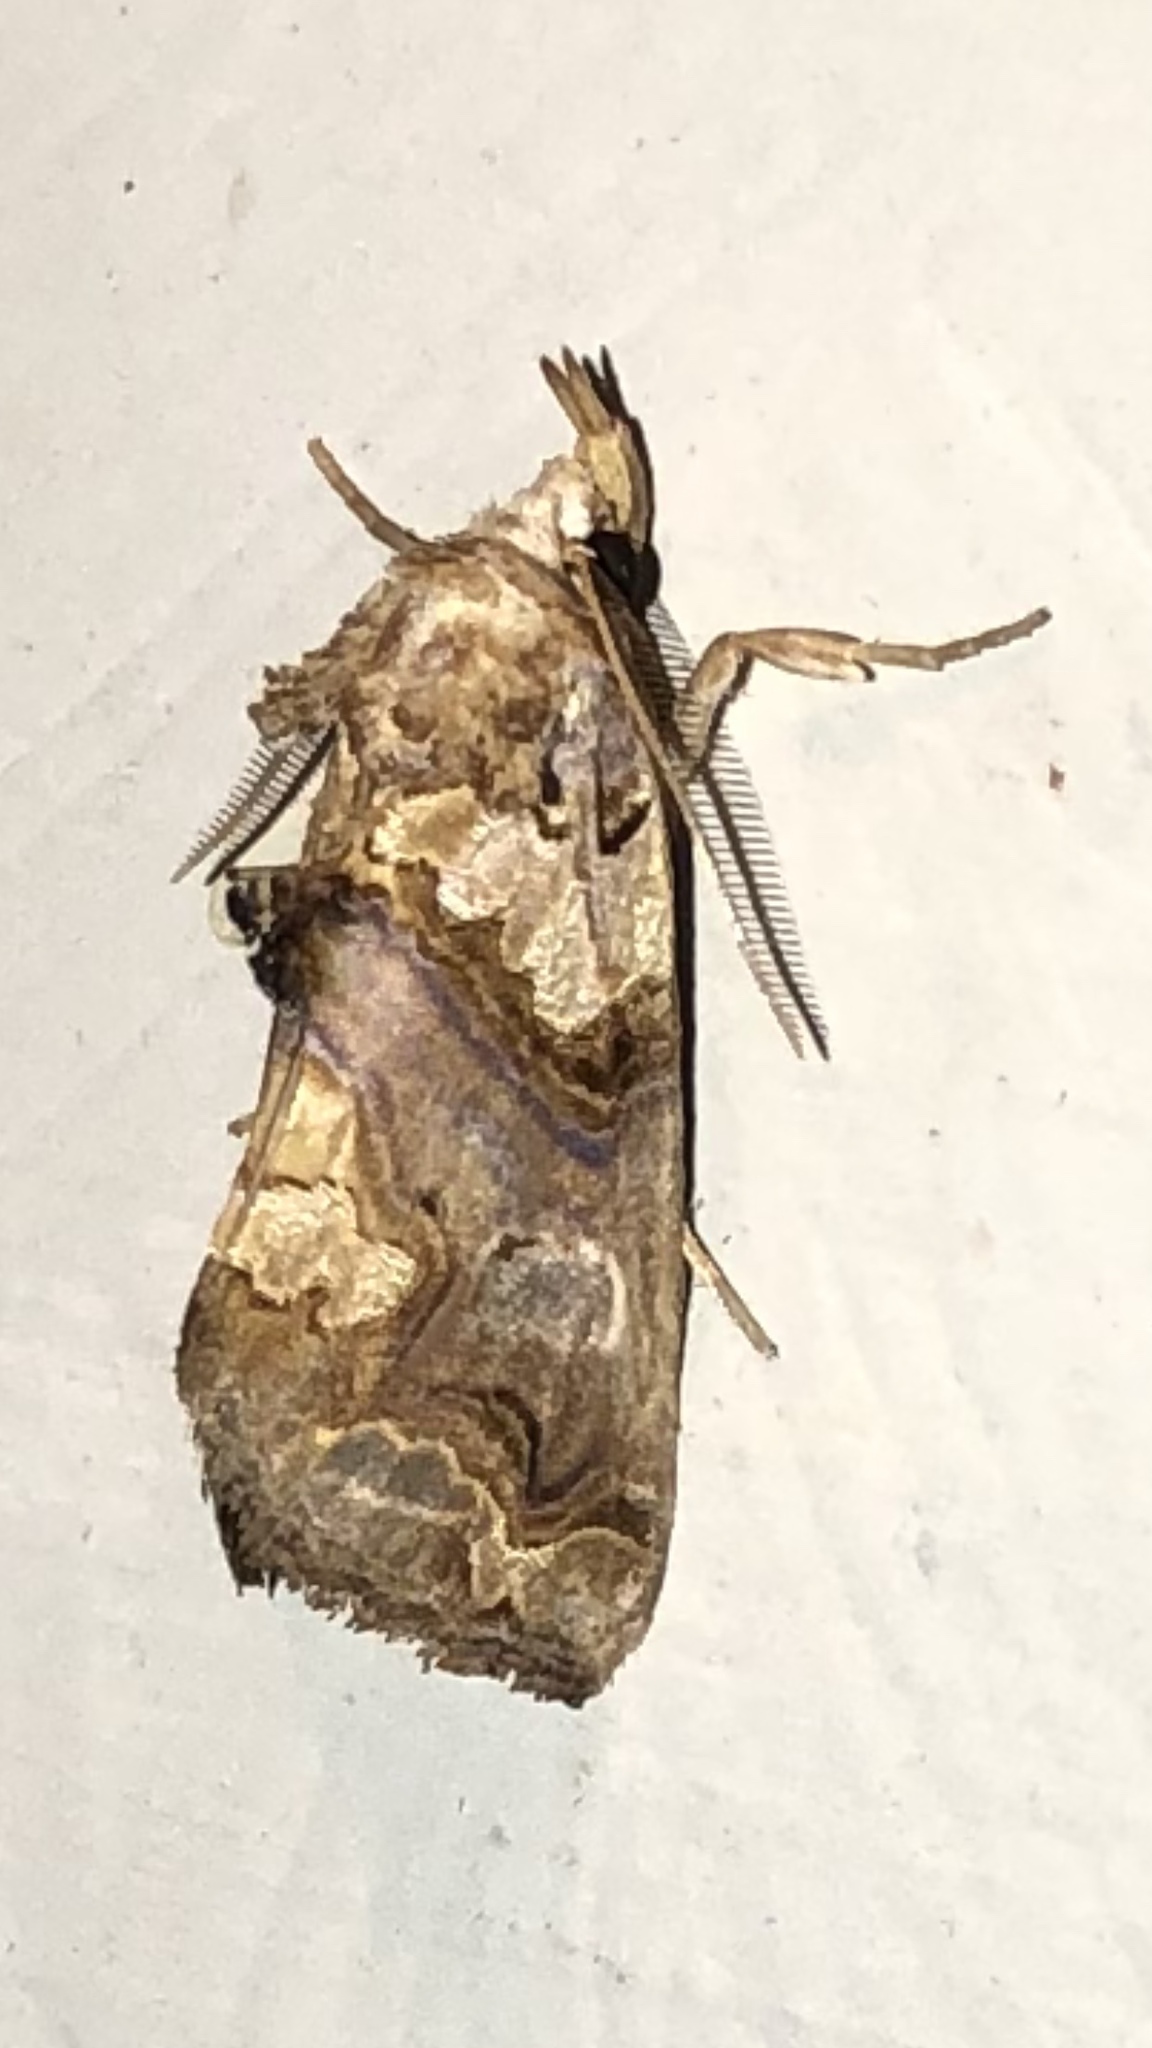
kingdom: Animalia
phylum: Arthropoda
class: Insecta
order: Lepidoptera
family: Erebidae
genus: Plusiodonta
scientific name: Plusiodonta compressipalpis
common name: Moonseed moth
